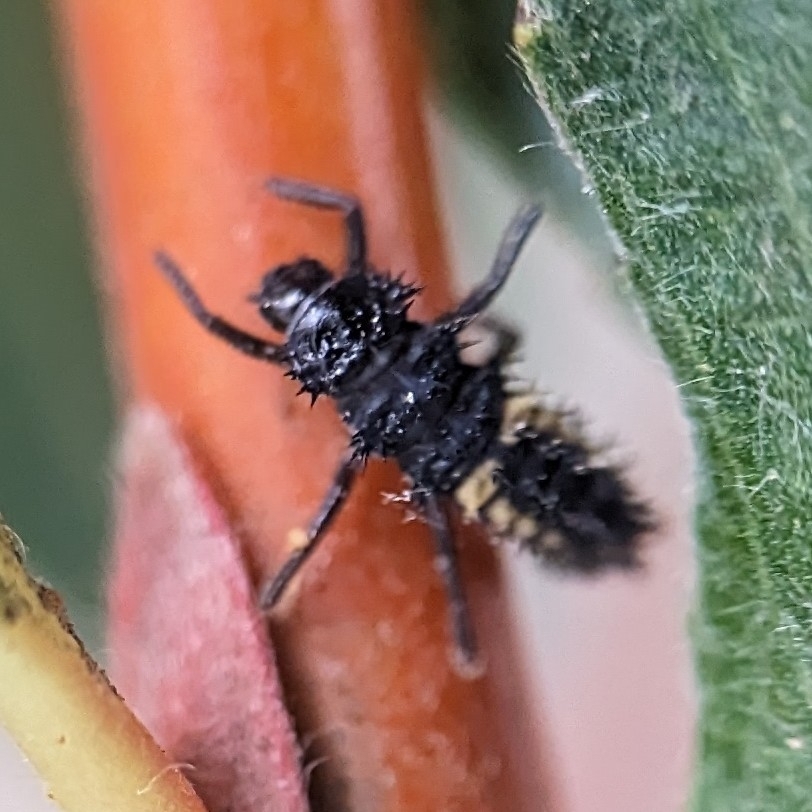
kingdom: Animalia
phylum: Arthropoda
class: Insecta
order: Coleoptera
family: Coccinellidae
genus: Harmonia
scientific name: Harmonia axyridis
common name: Harlequin ladybird
